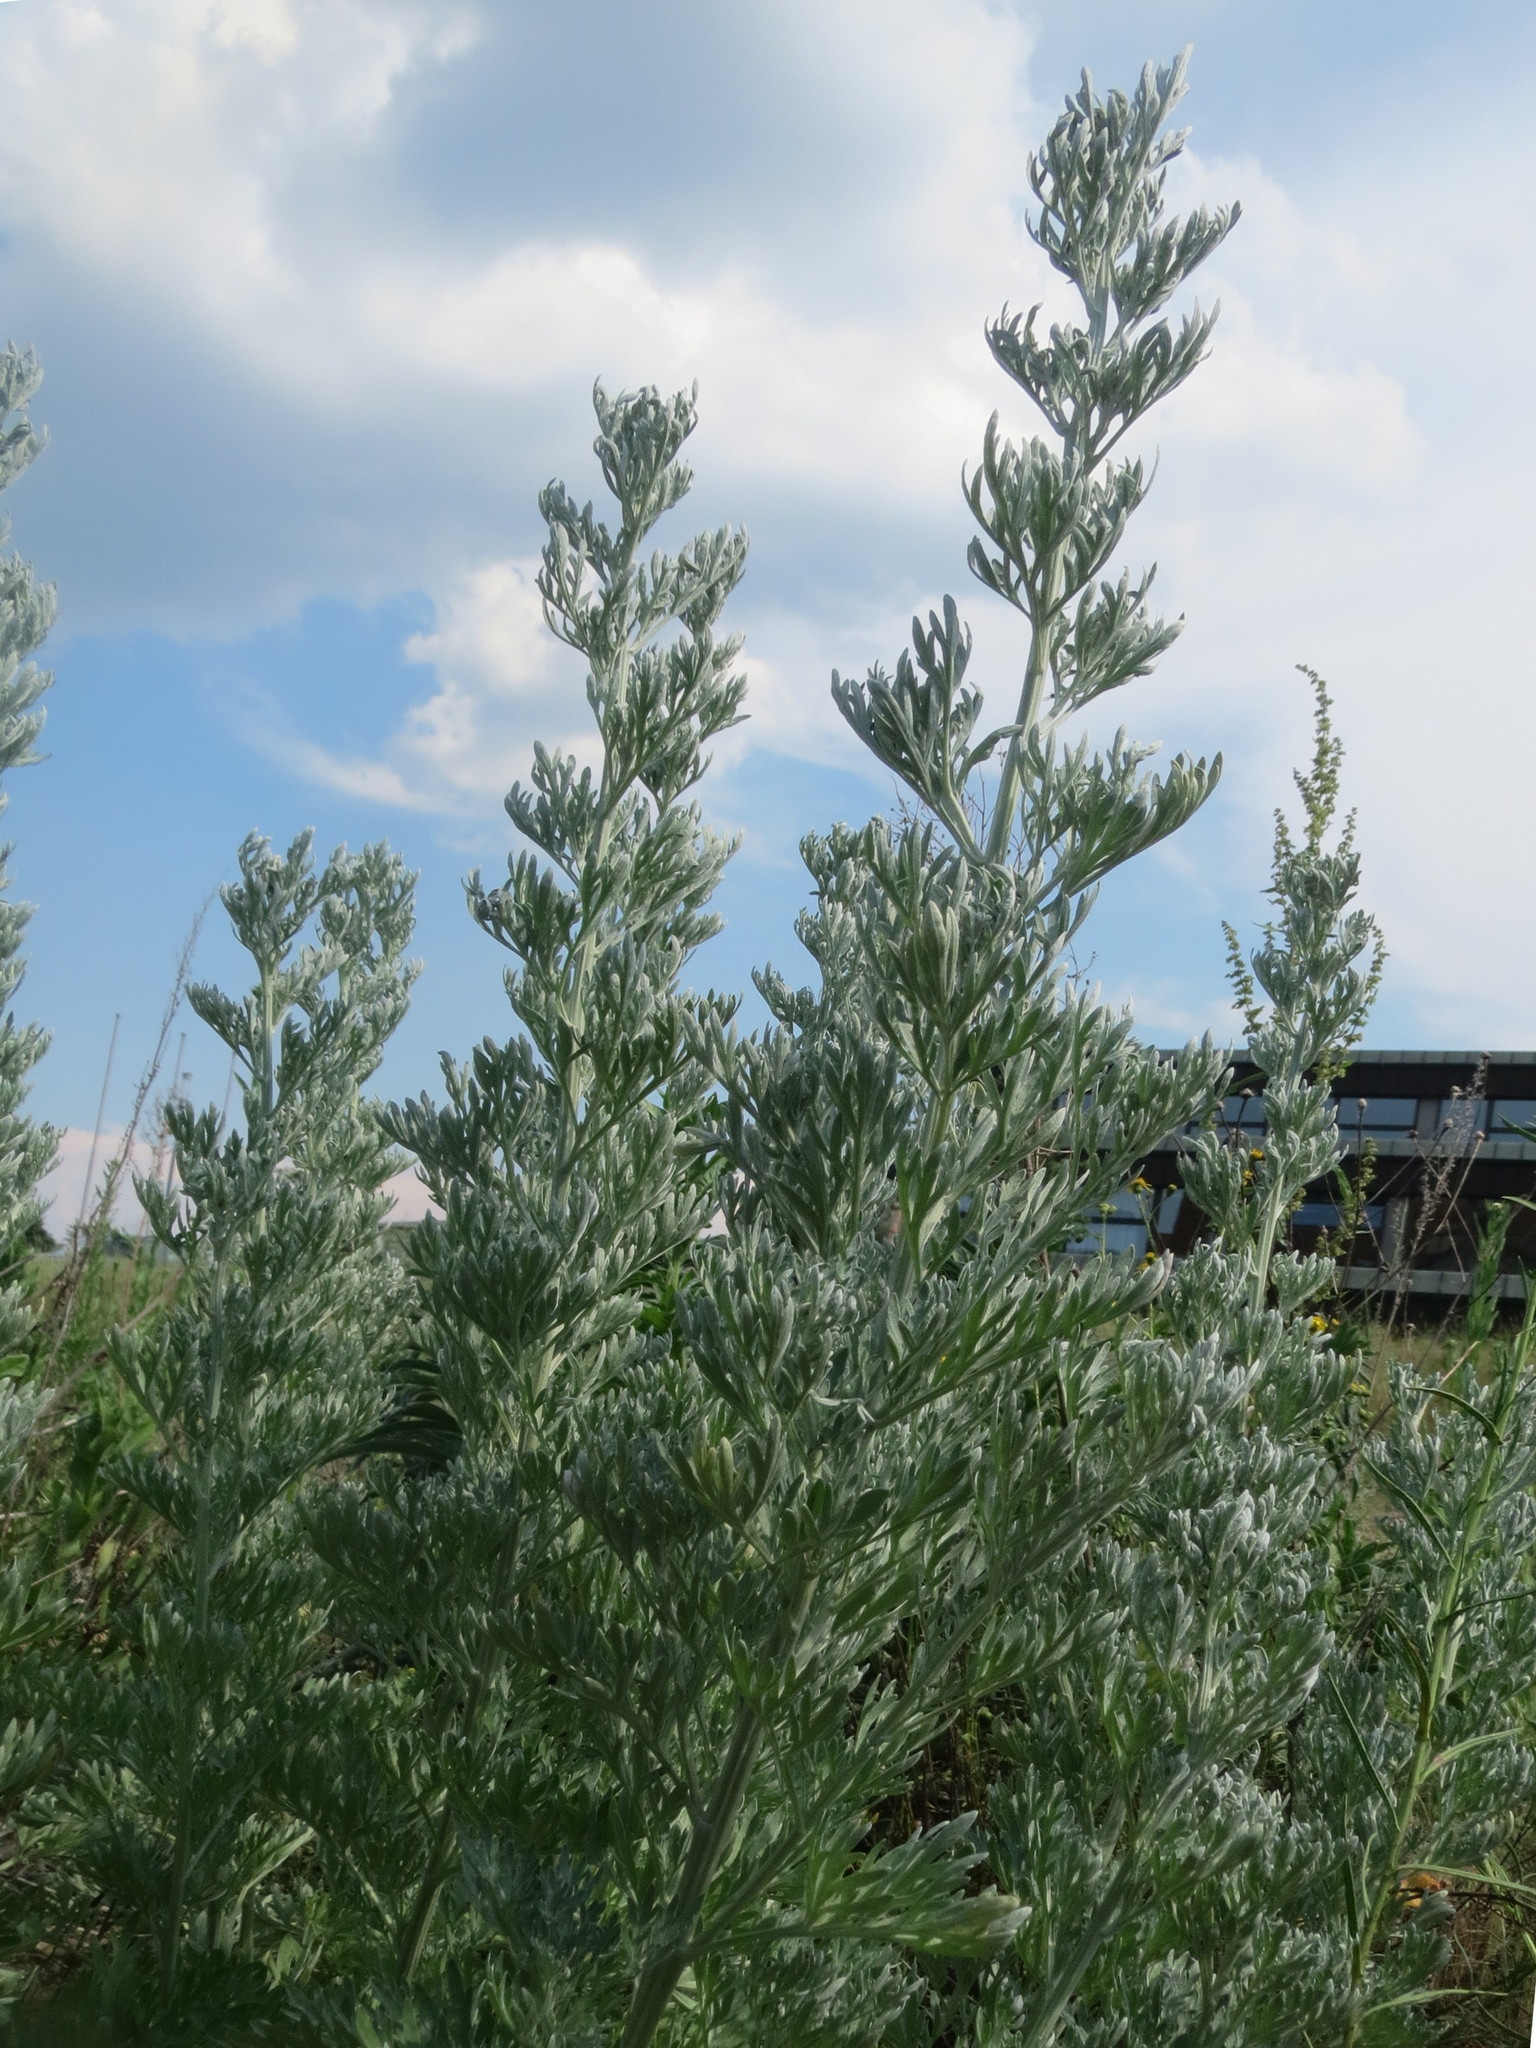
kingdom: Plantae
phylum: Tracheophyta
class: Magnoliopsida
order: Asterales
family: Asteraceae
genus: Artemisia
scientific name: Artemisia absinthium
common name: Wormwood
